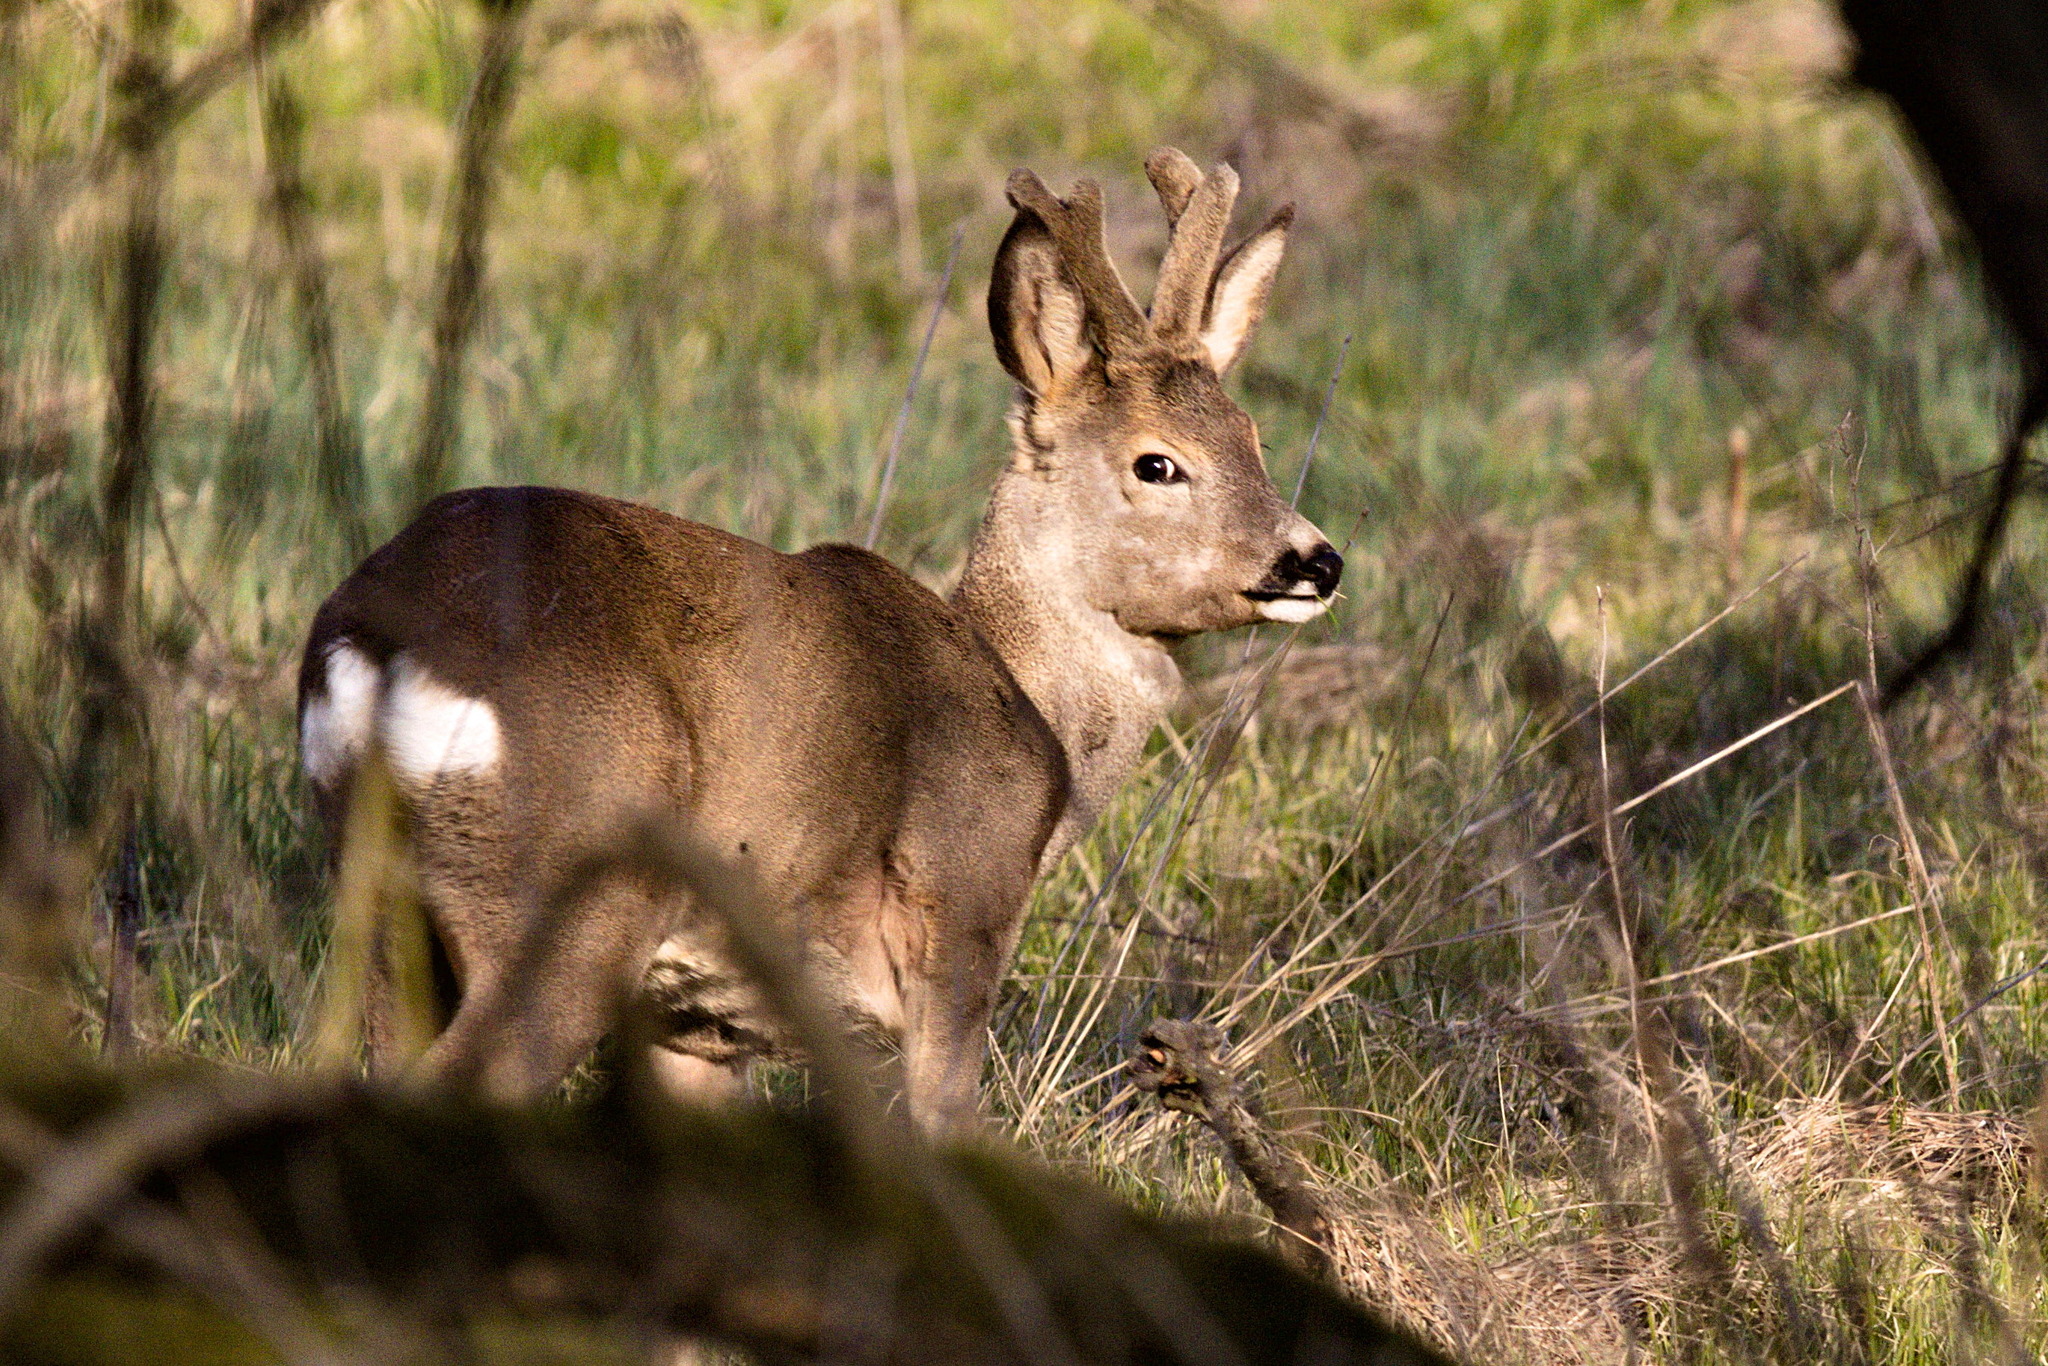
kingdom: Animalia
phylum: Chordata
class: Mammalia
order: Artiodactyla
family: Cervidae
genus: Capreolus
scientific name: Capreolus capreolus
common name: Western roe deer
